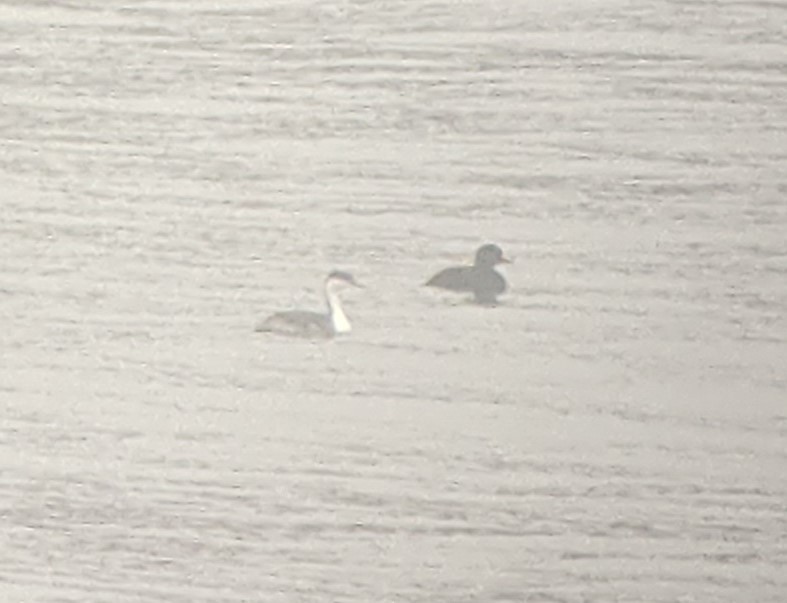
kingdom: Animalia
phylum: Chordata
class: Aves
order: Anseriformes
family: Anatidae
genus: Melanitta
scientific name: Melanitta americana
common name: Black scoter
